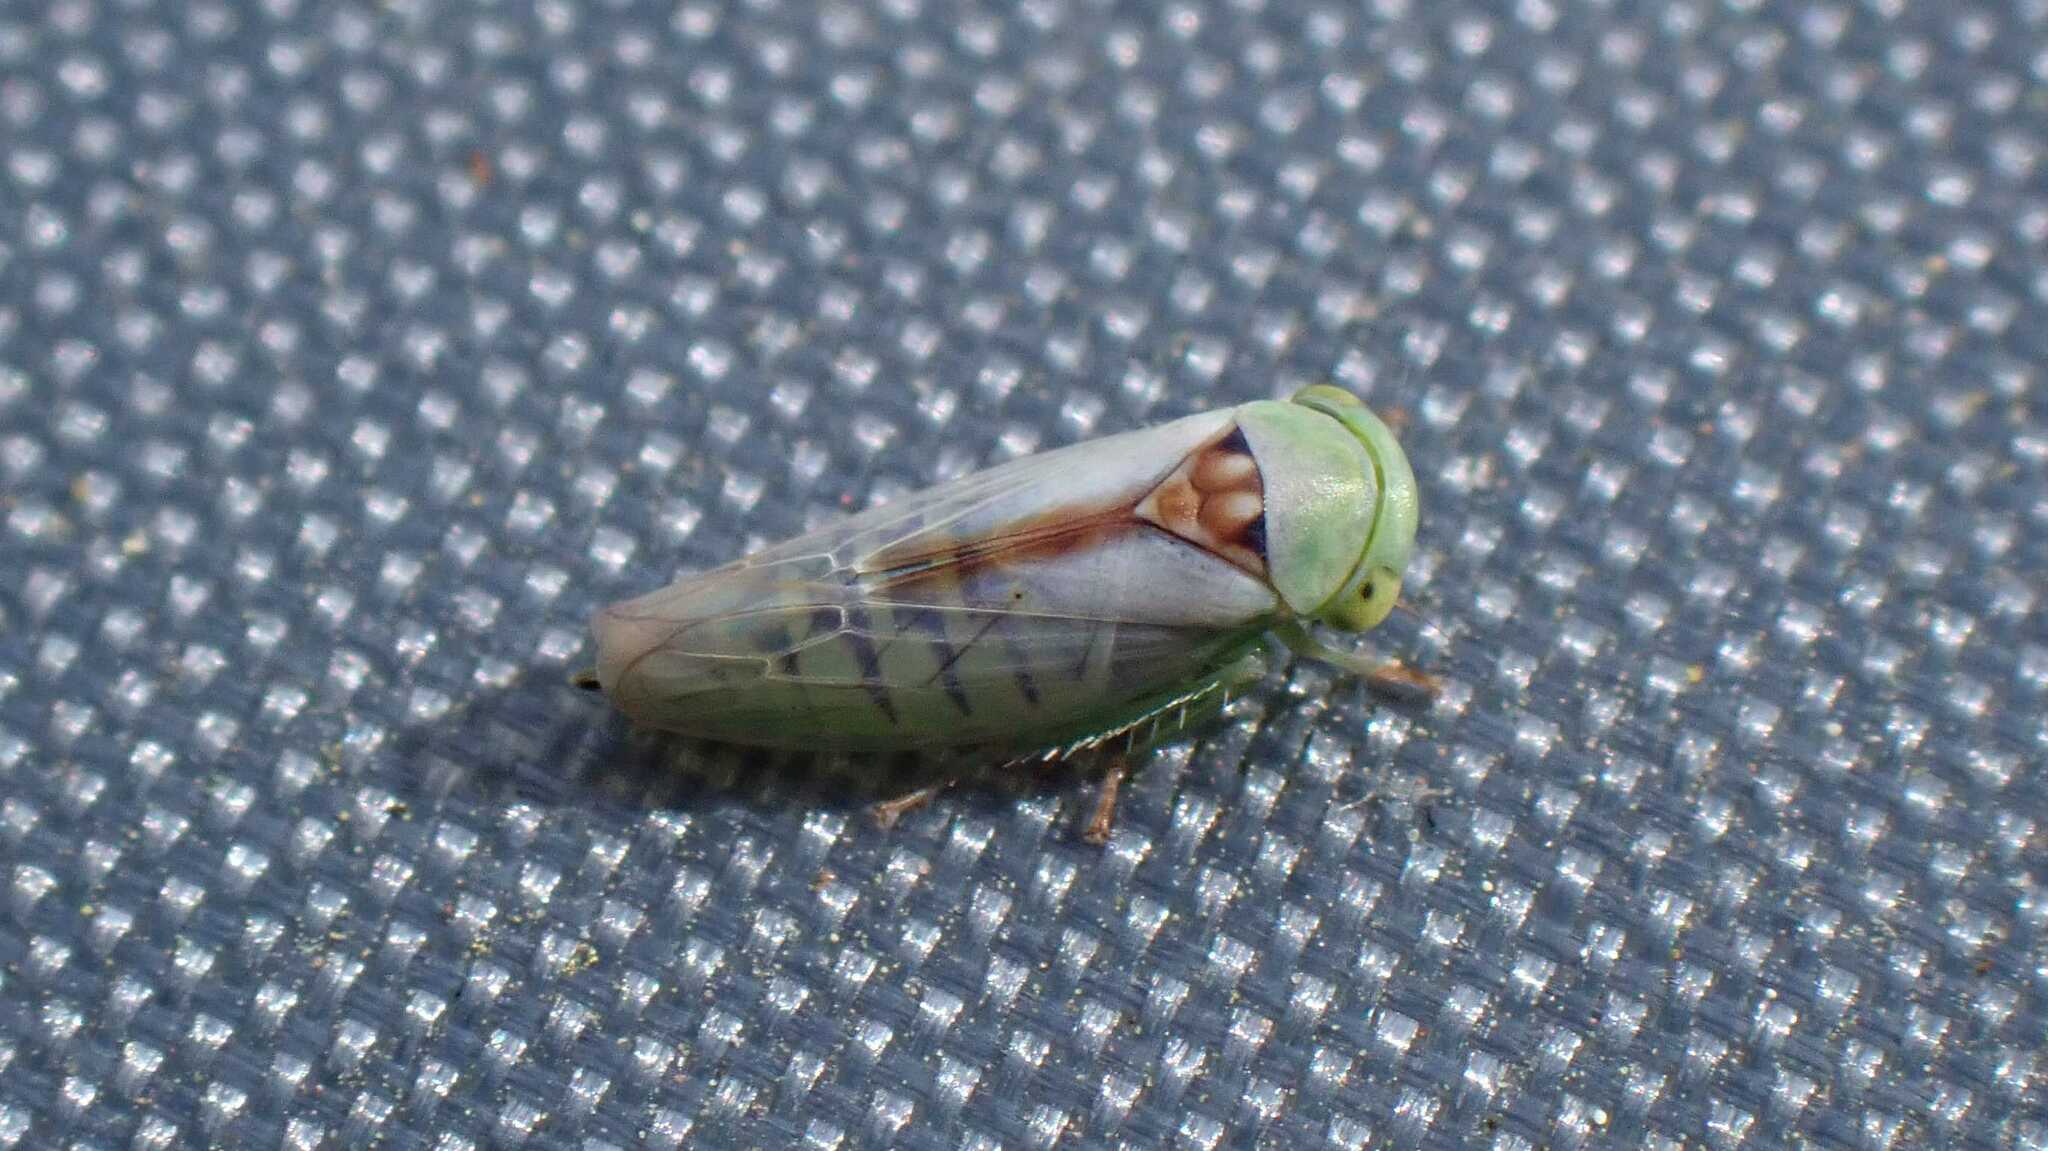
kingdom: Animalia
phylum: Arthropoda
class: Insecta
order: Hemiptera
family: Cicadellidae
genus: Viridicerus
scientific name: Viridicerus ustulatus
